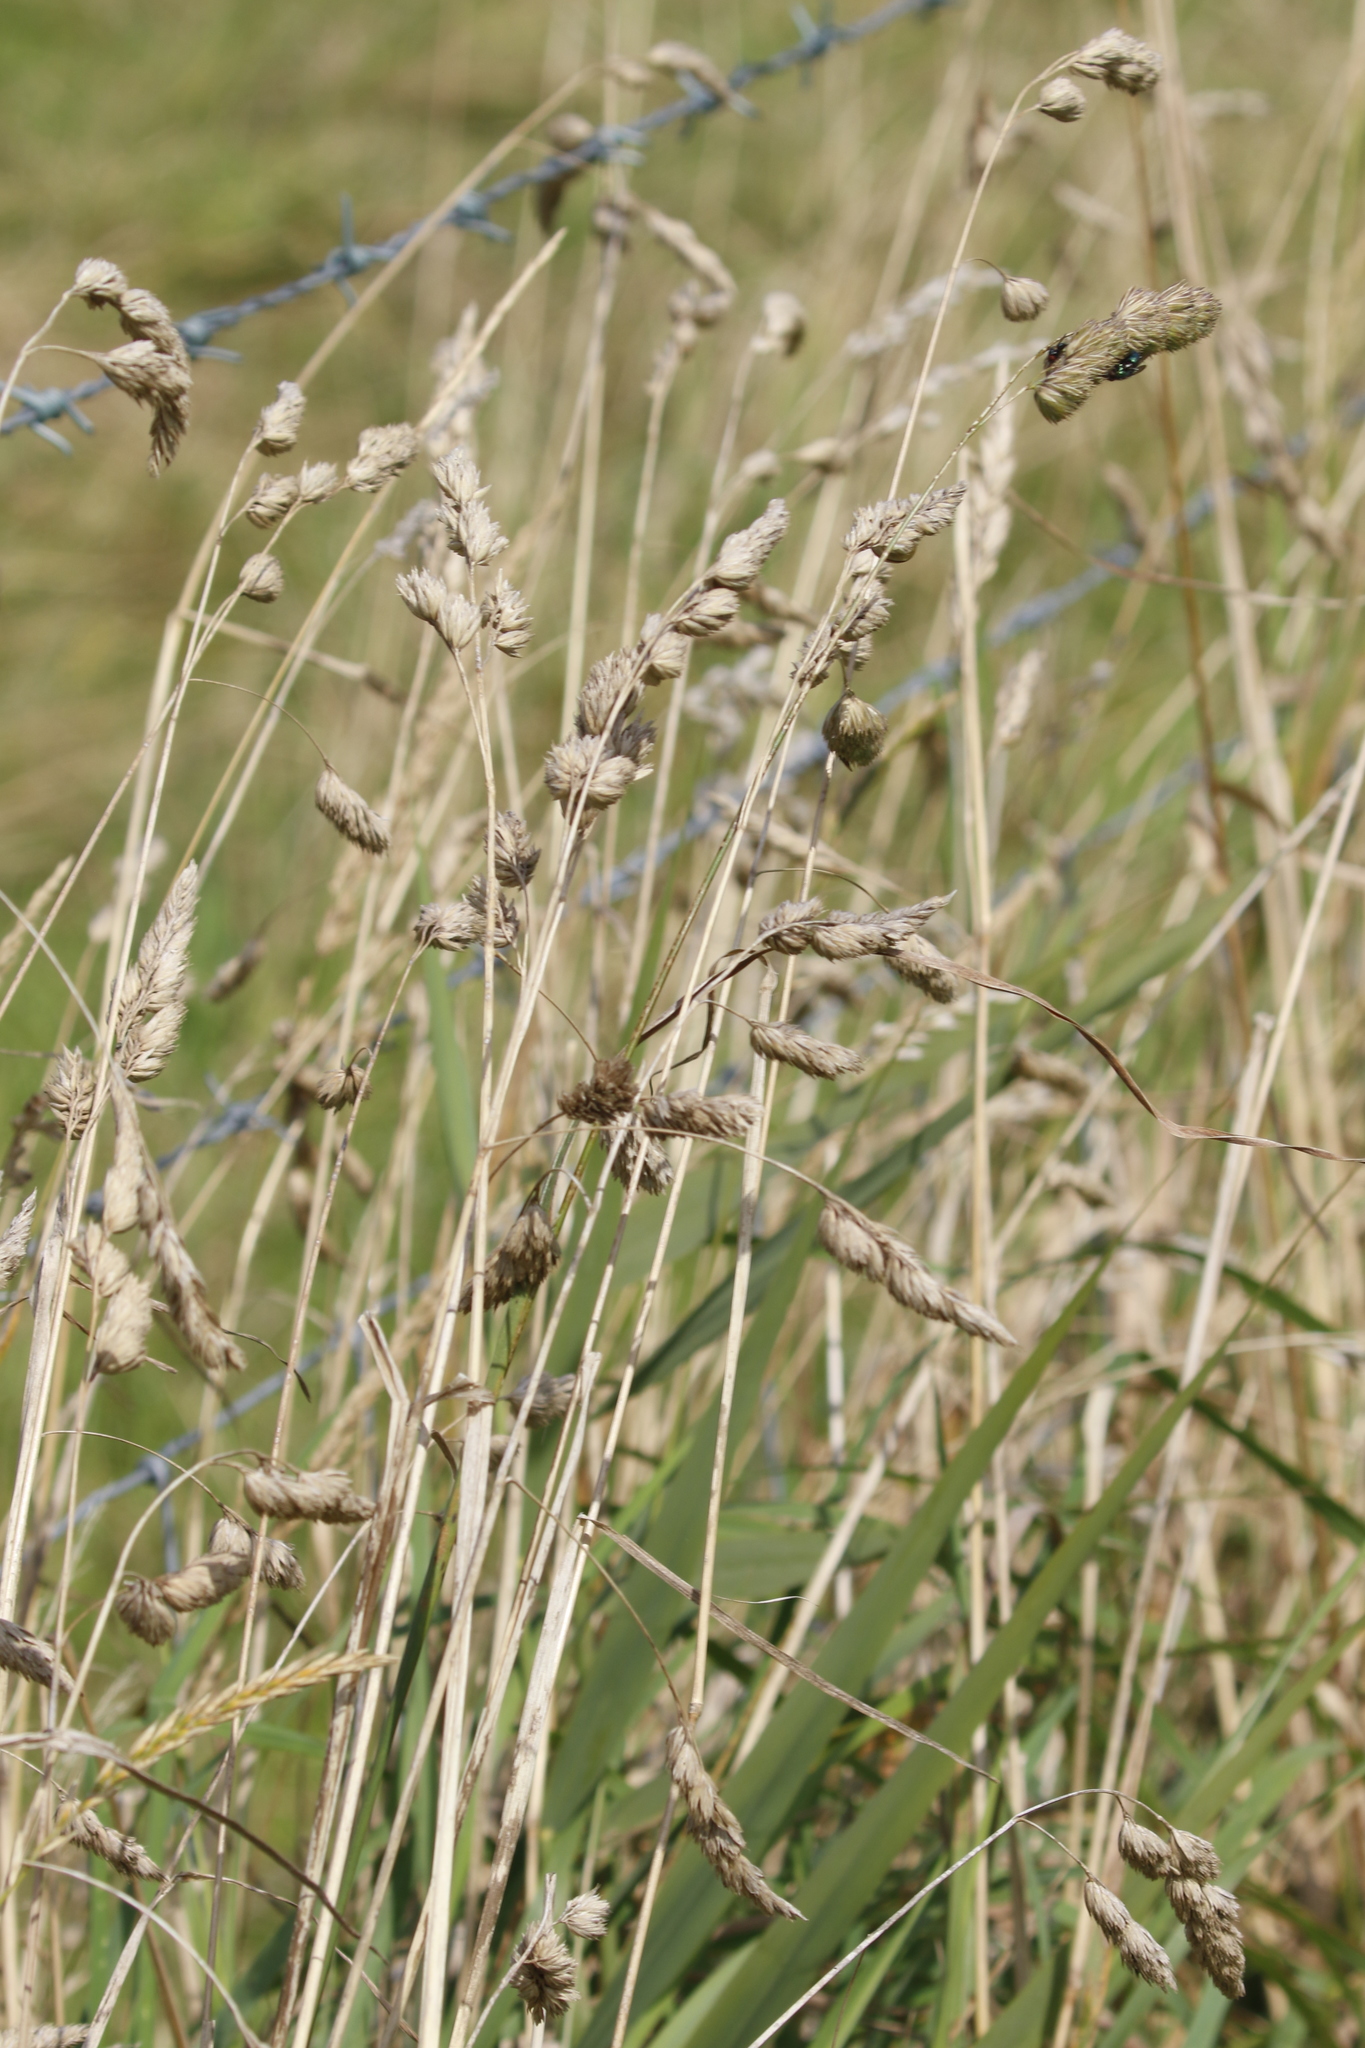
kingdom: Plantae
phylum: Tracheophyta
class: Liliopsida
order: Poales
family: Poaceae
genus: Dactylis
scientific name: Dactylis glomerata
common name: Orchardgrass
